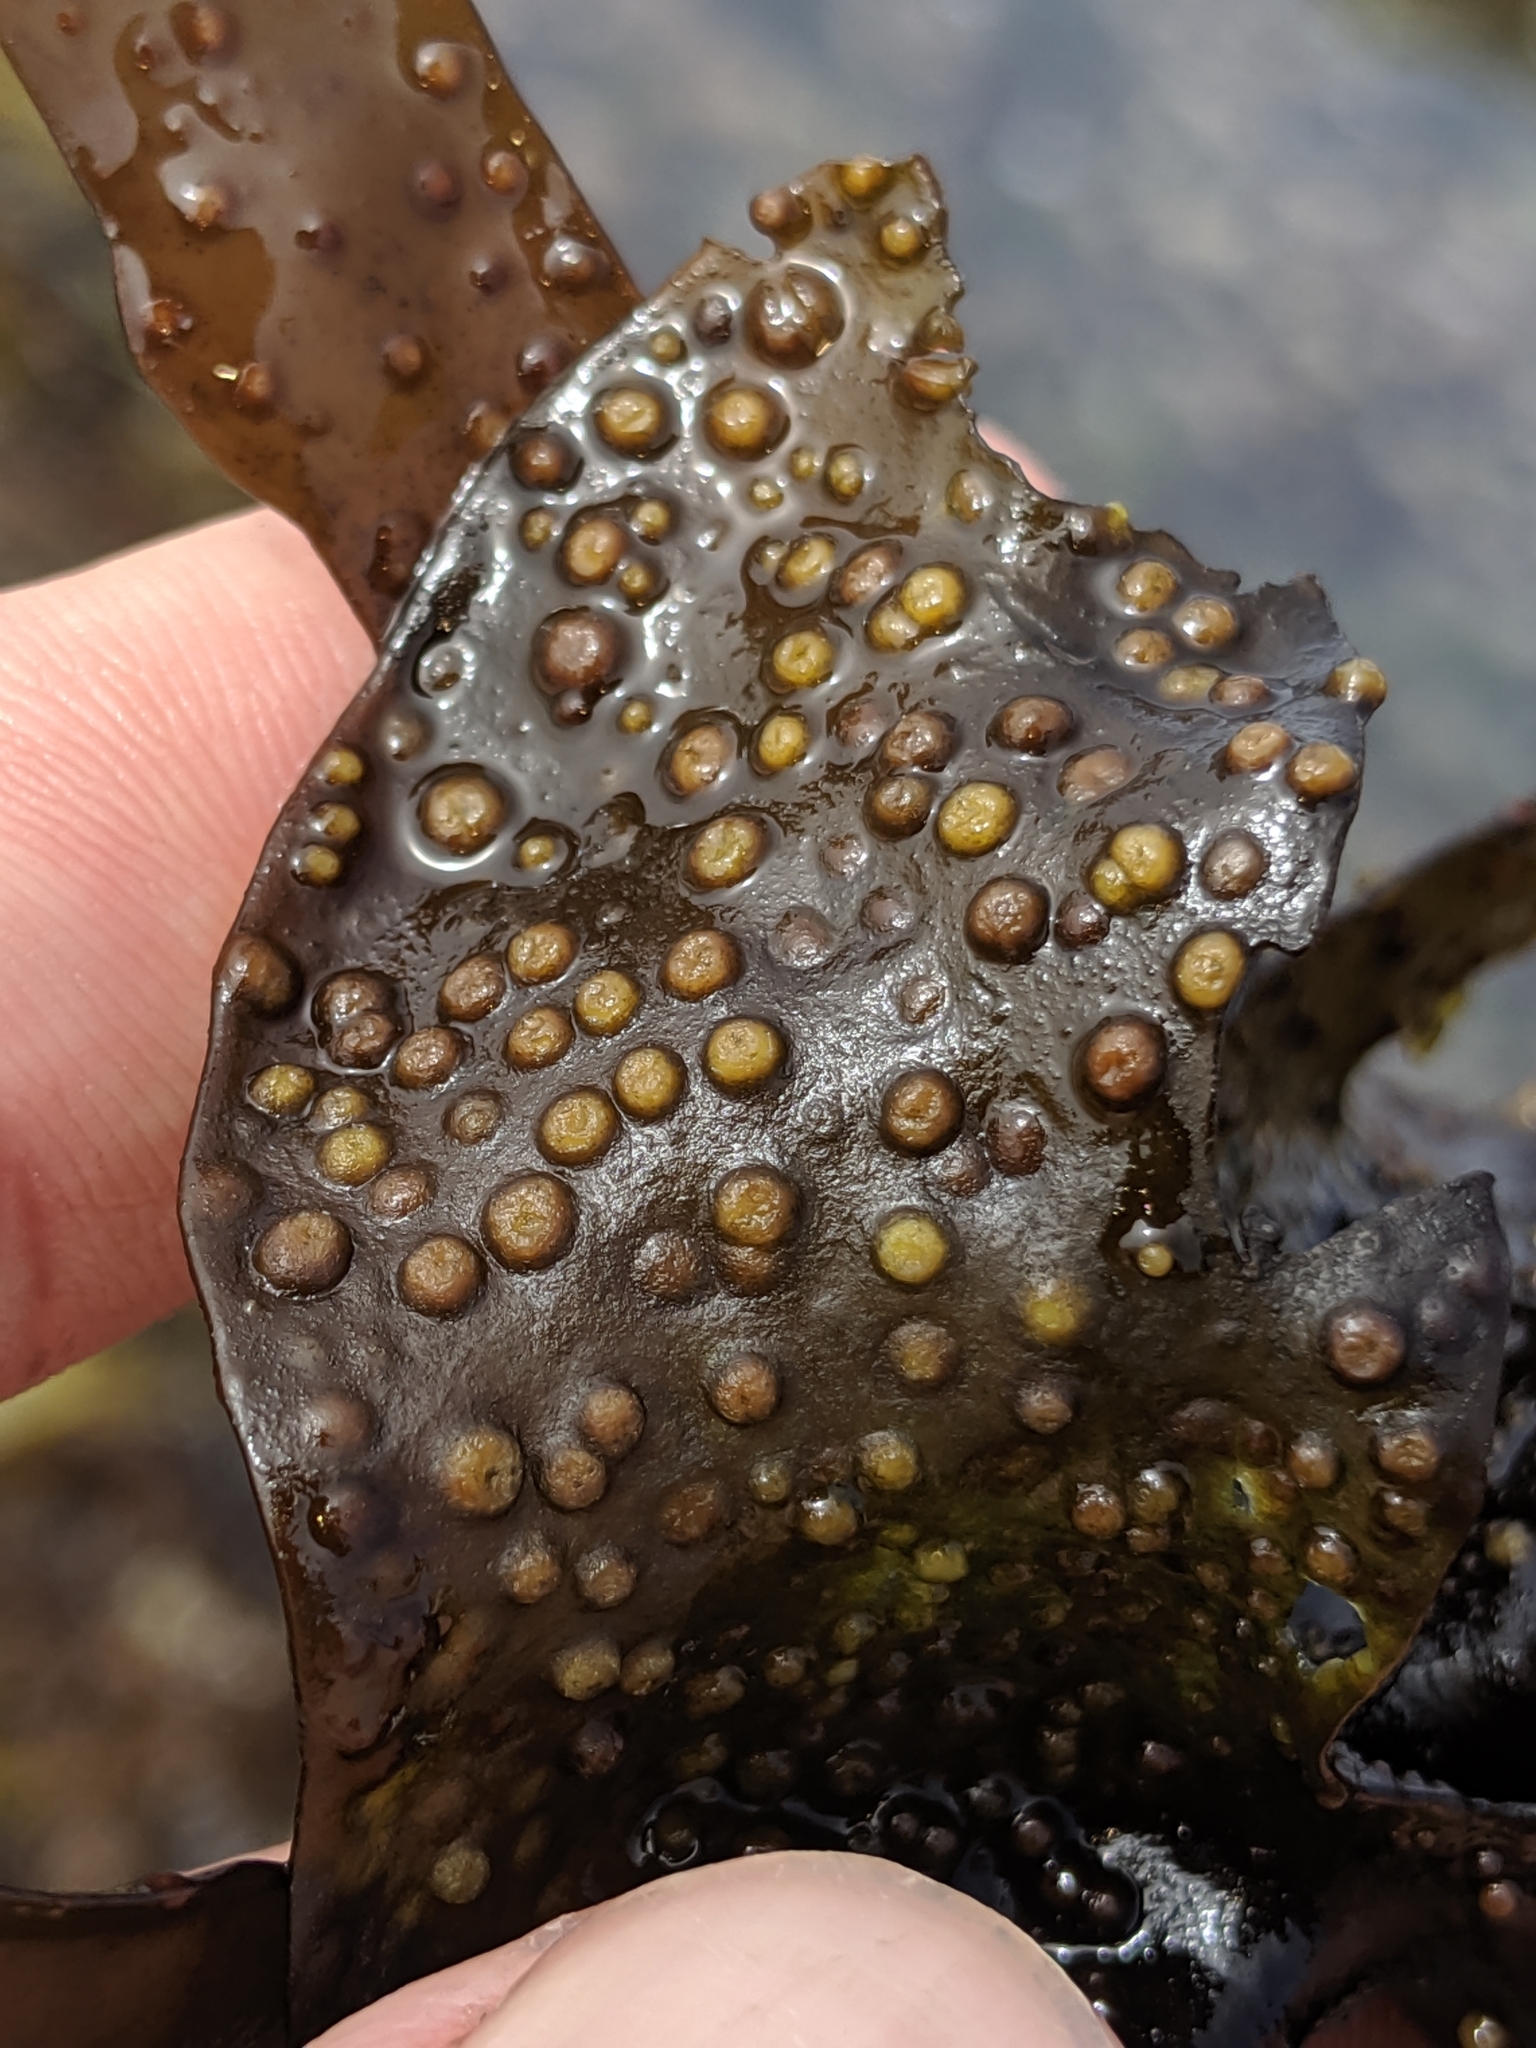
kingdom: Plantae
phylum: Rhodophyta
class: Florideophyceae
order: Gigartinales
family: Gigartinaceae
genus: Mazzaella
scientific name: Mazzaella oregona
